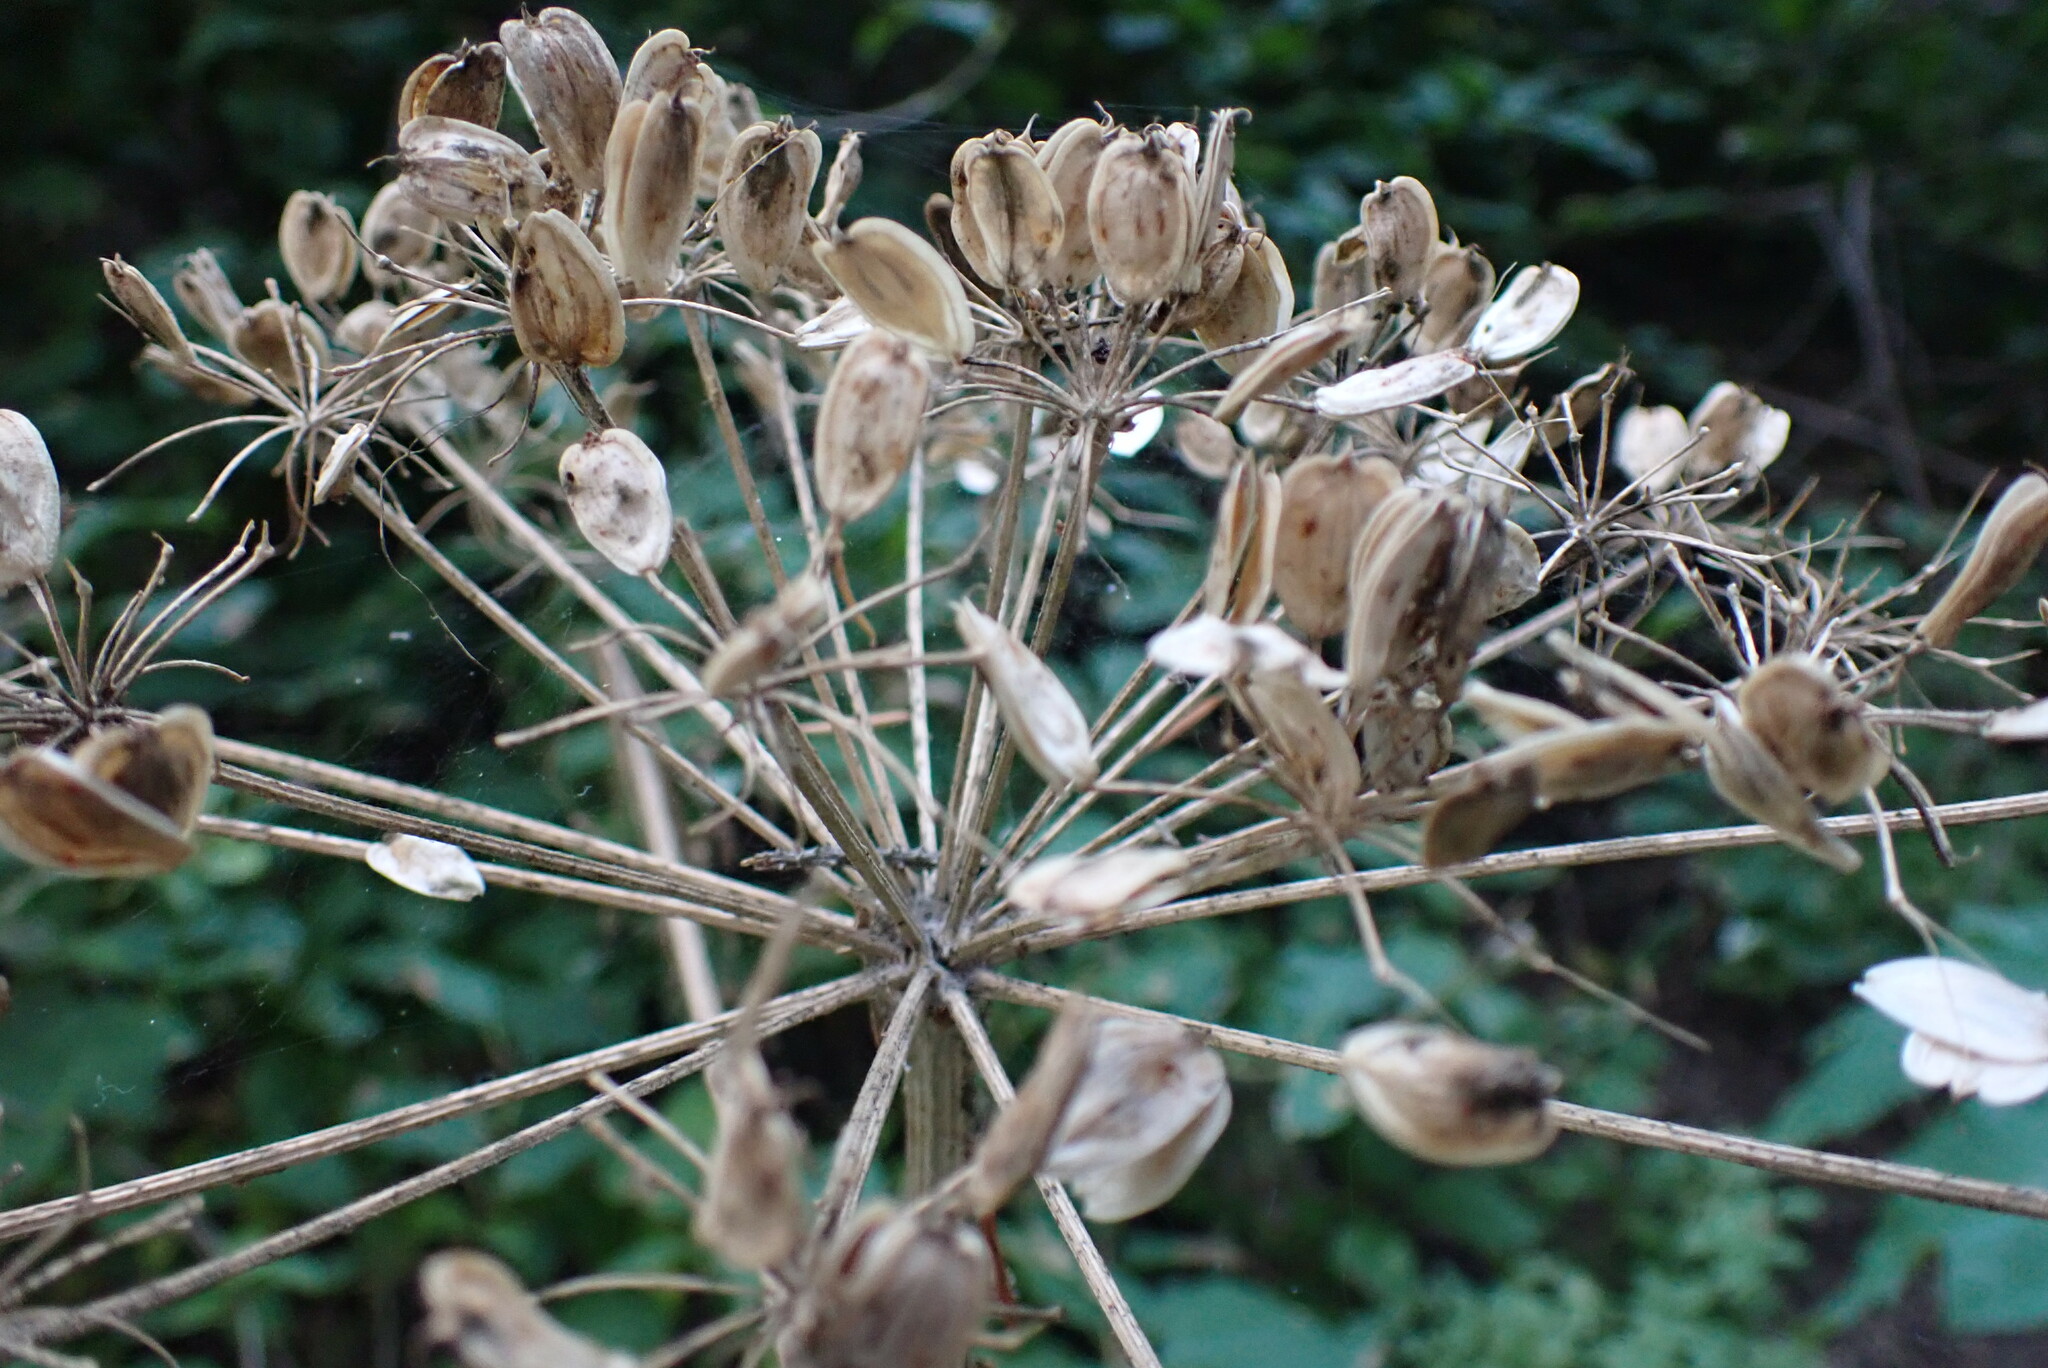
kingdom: Plantae
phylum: Tracheophyta
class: Magnoliopsida
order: Apiales
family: Apiaceae
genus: Heracleum
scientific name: Heracleum maximum
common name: American cow parsnip
